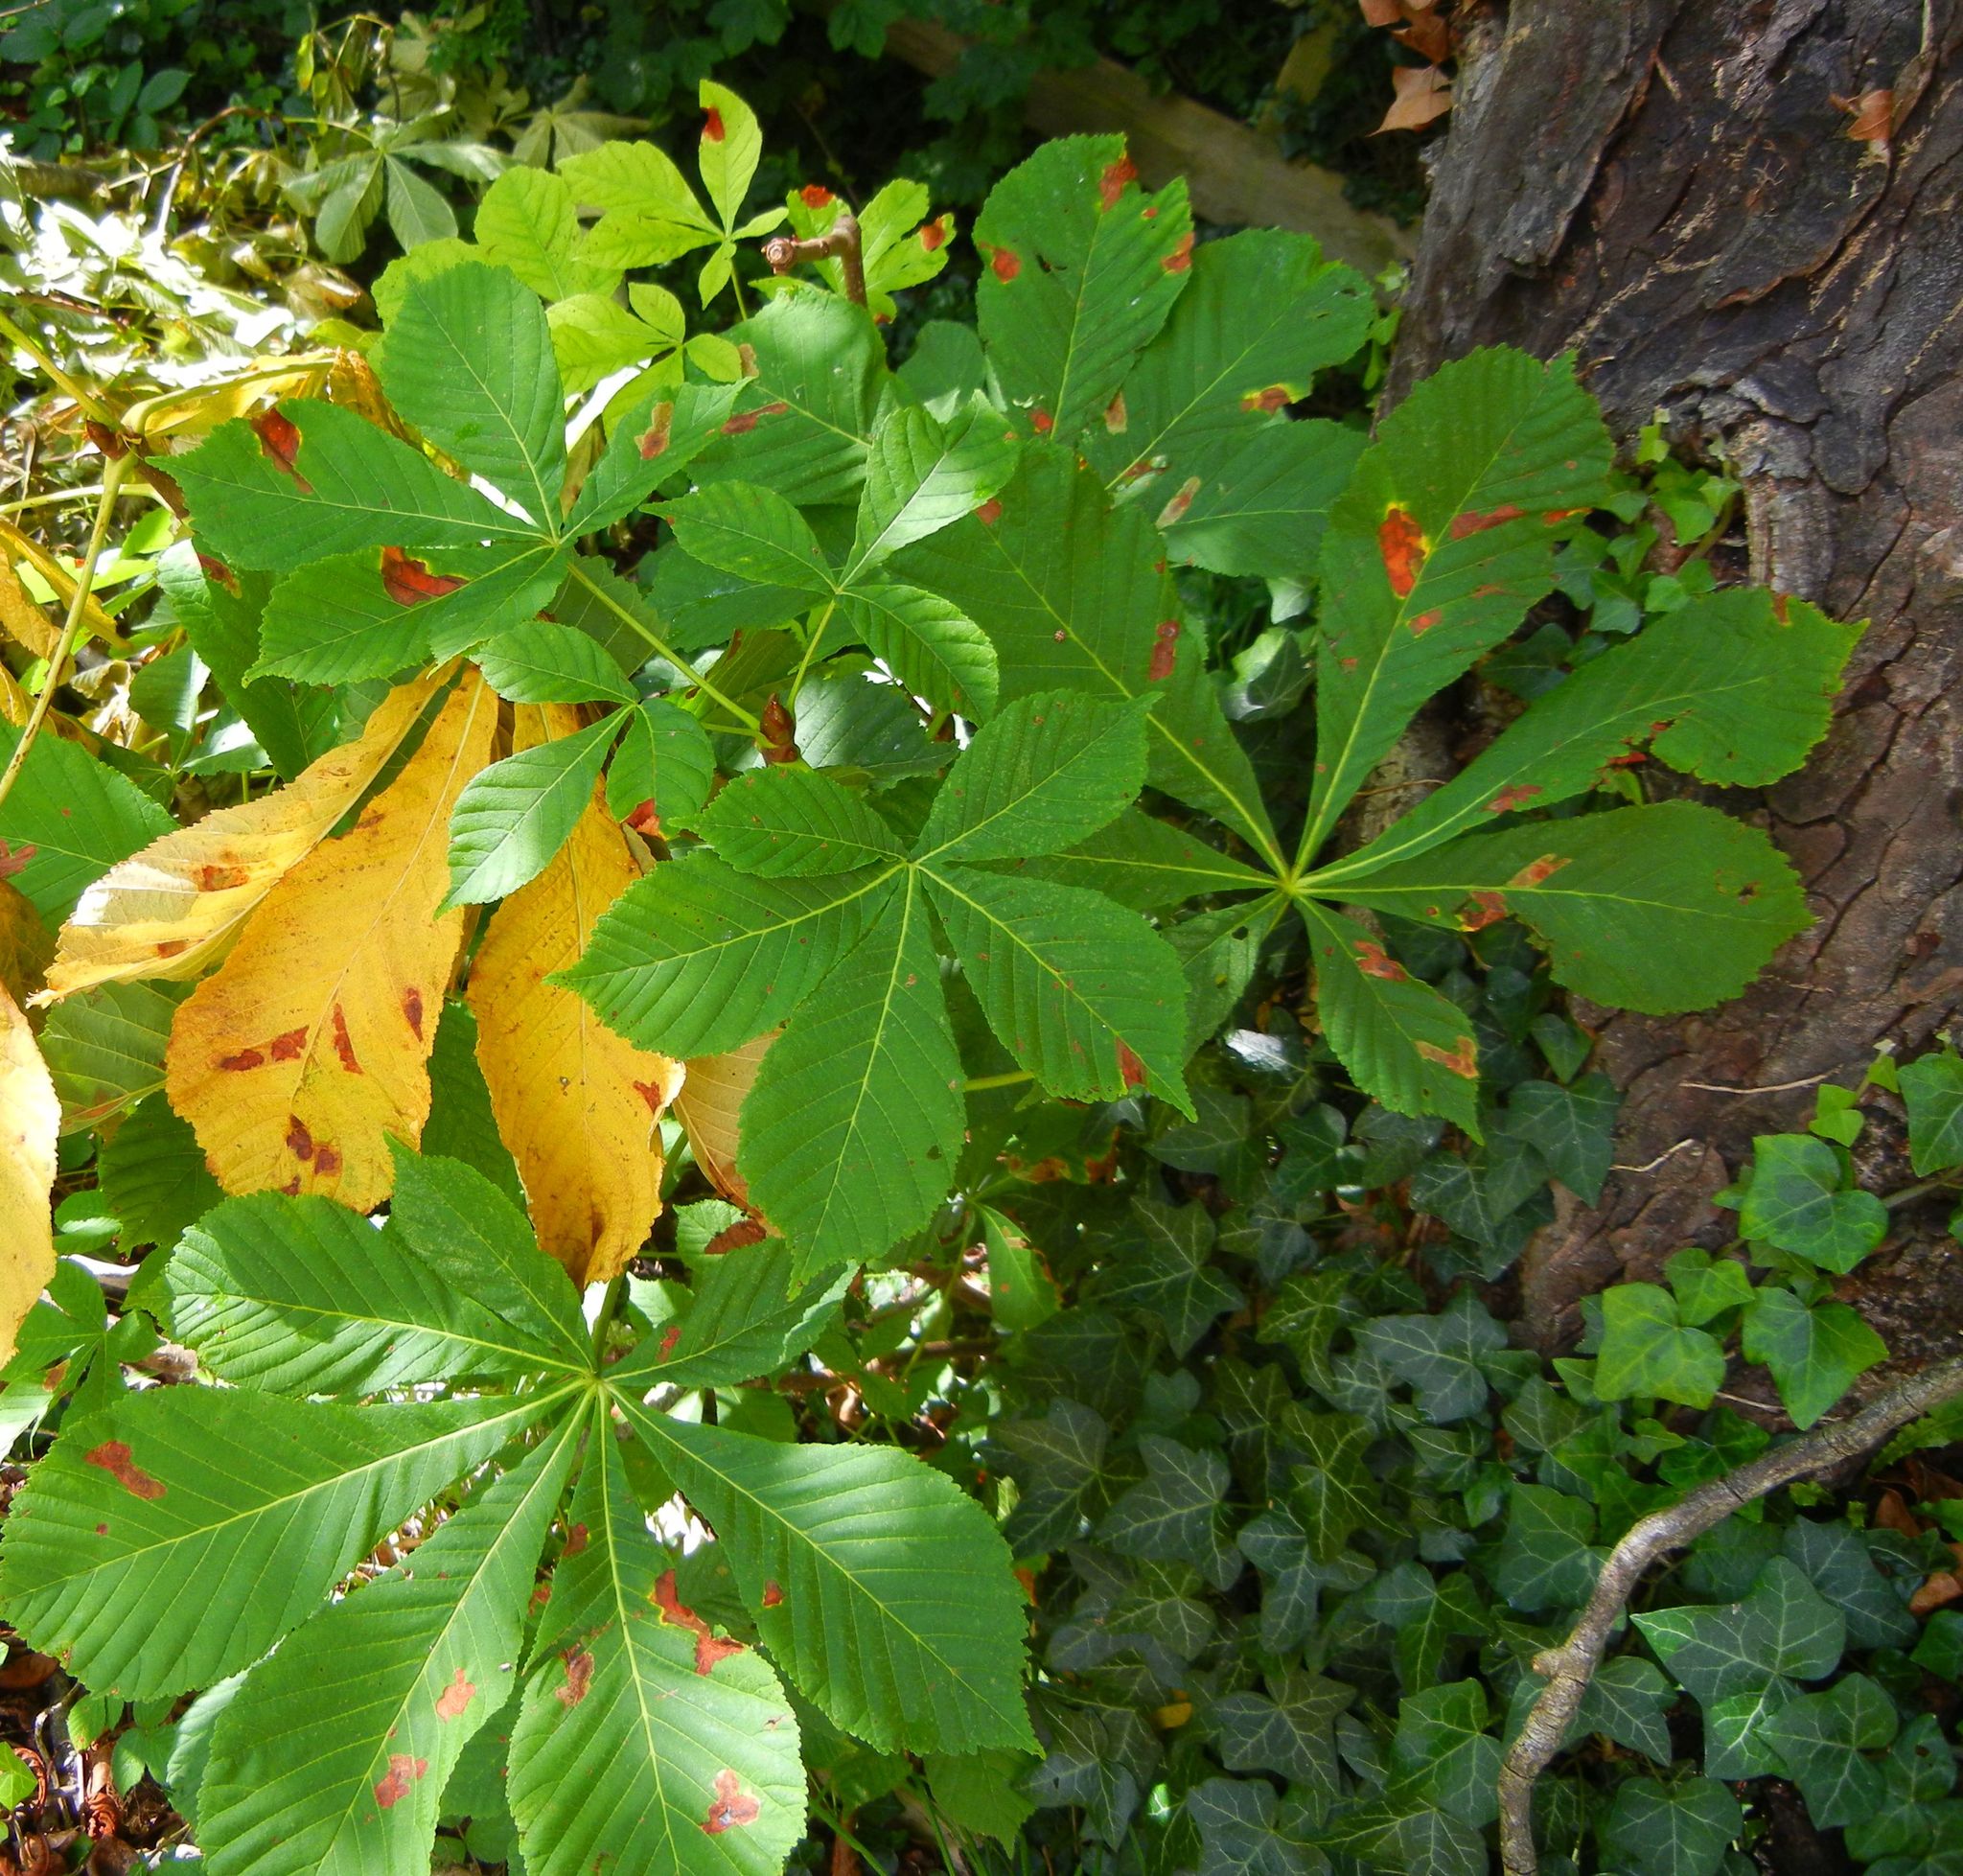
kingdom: Plantae
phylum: Tracheophyta
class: Magnoliopsida
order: Sapindales
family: Sapindaceae
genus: Aesculus
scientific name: Aesculus hippocastanum
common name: Horse-chestnut
